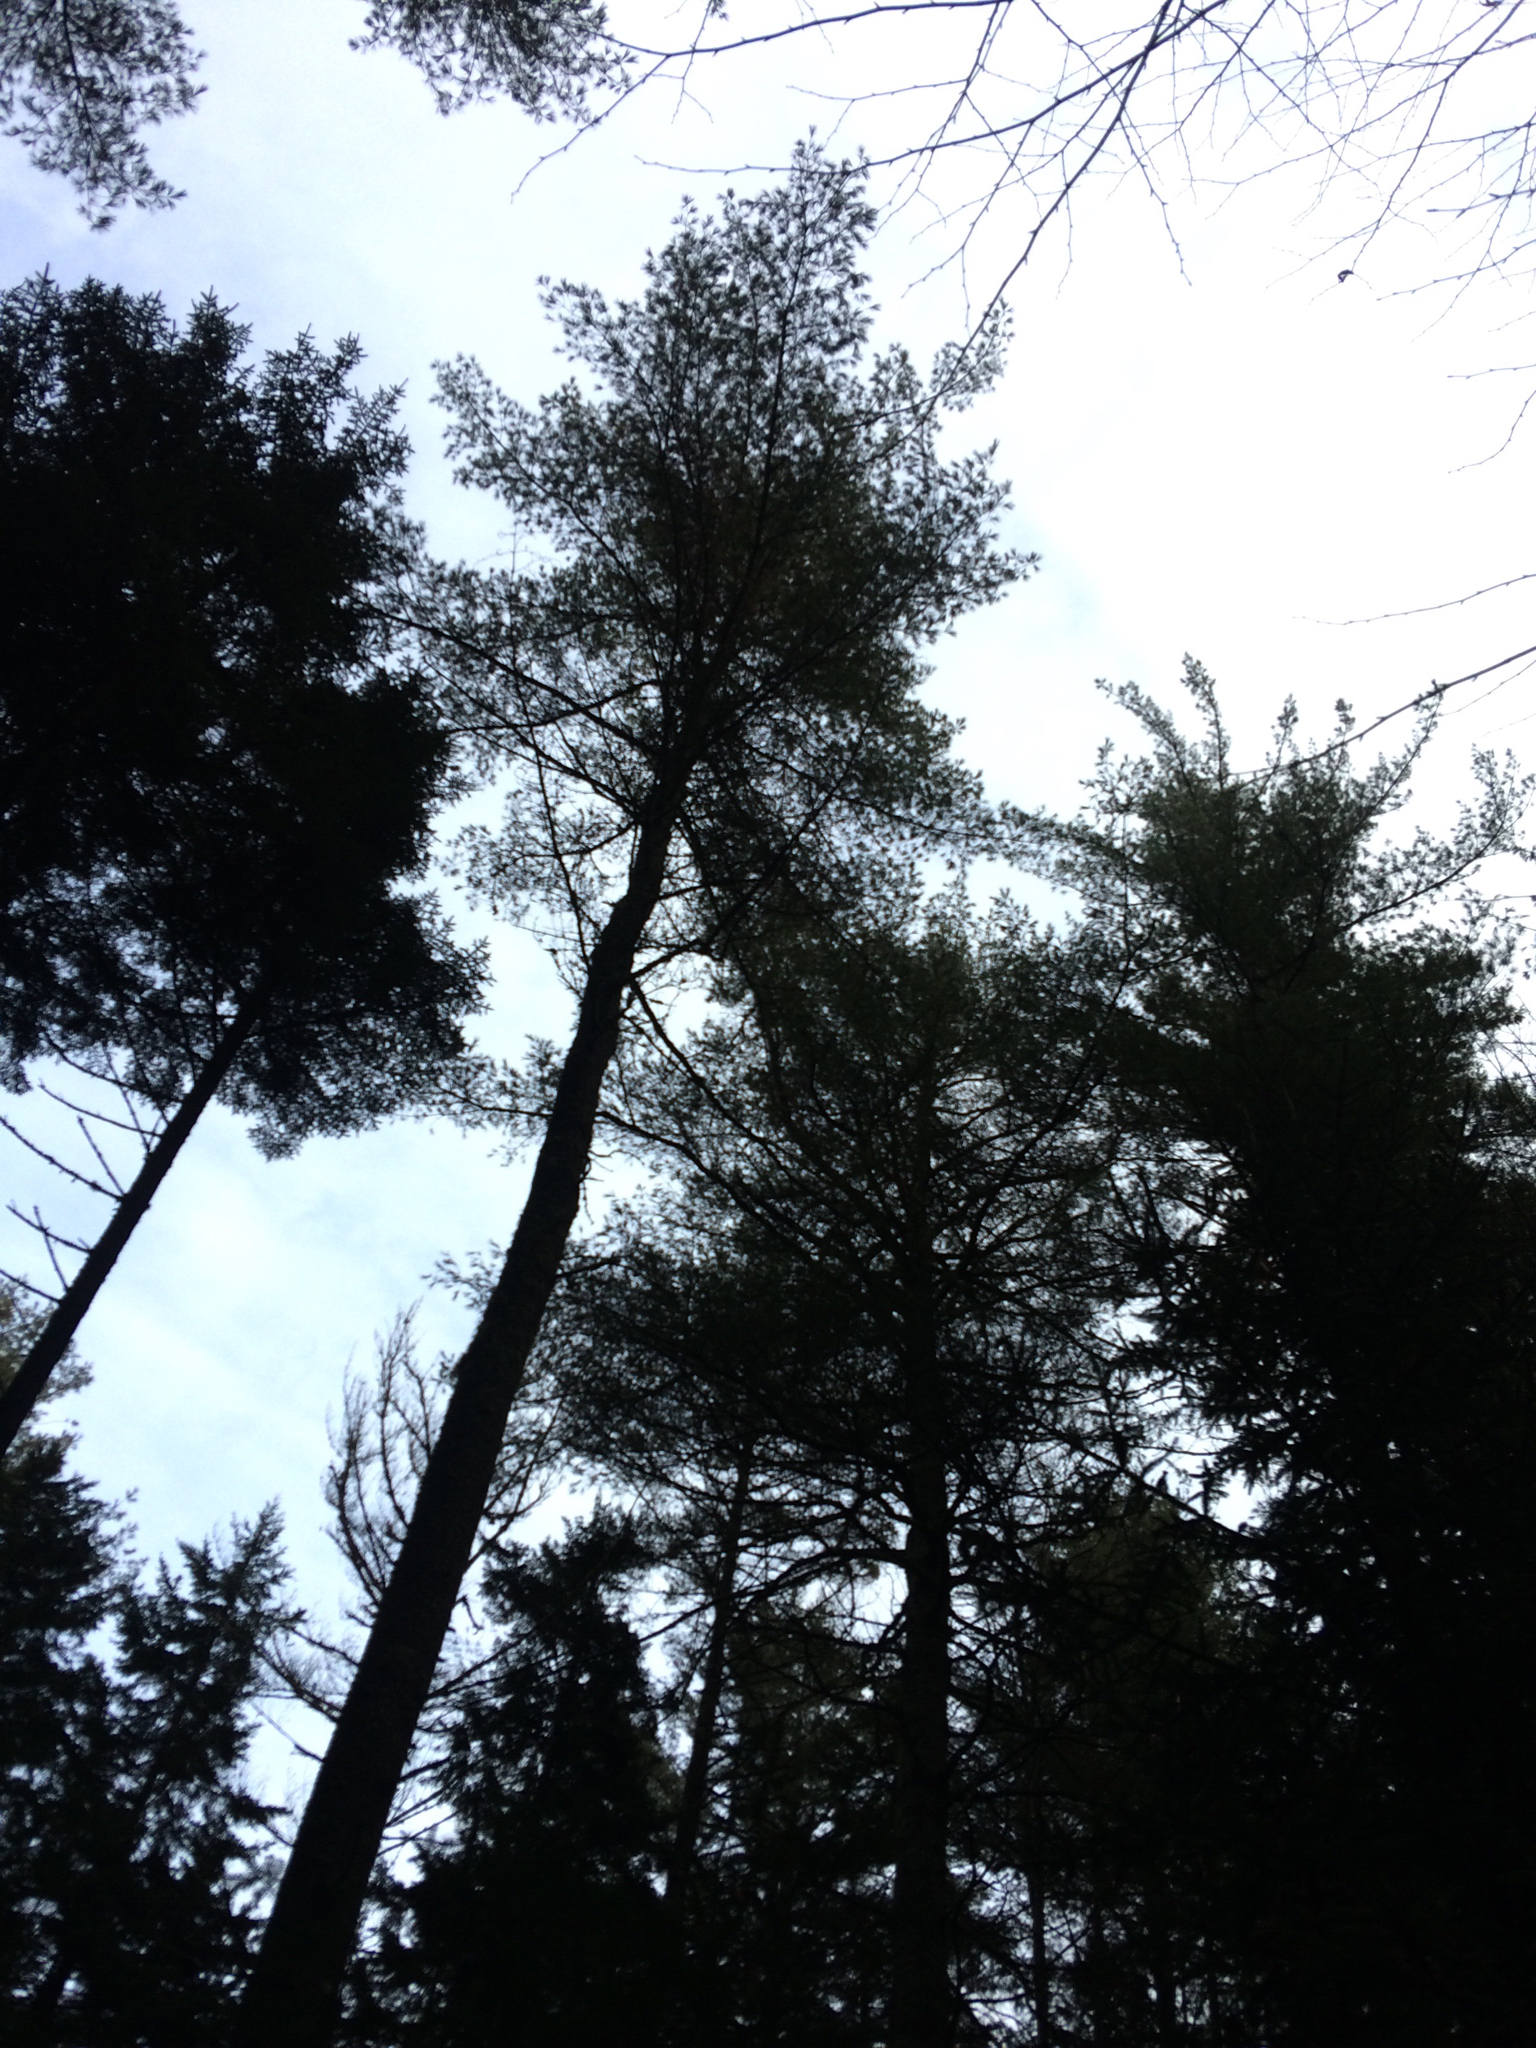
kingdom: Plantae
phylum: Tracheophyta
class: Pinopsida
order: Pinales
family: Pinaceae
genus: Pinus
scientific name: Pinus strobus
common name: Weymouth pine
